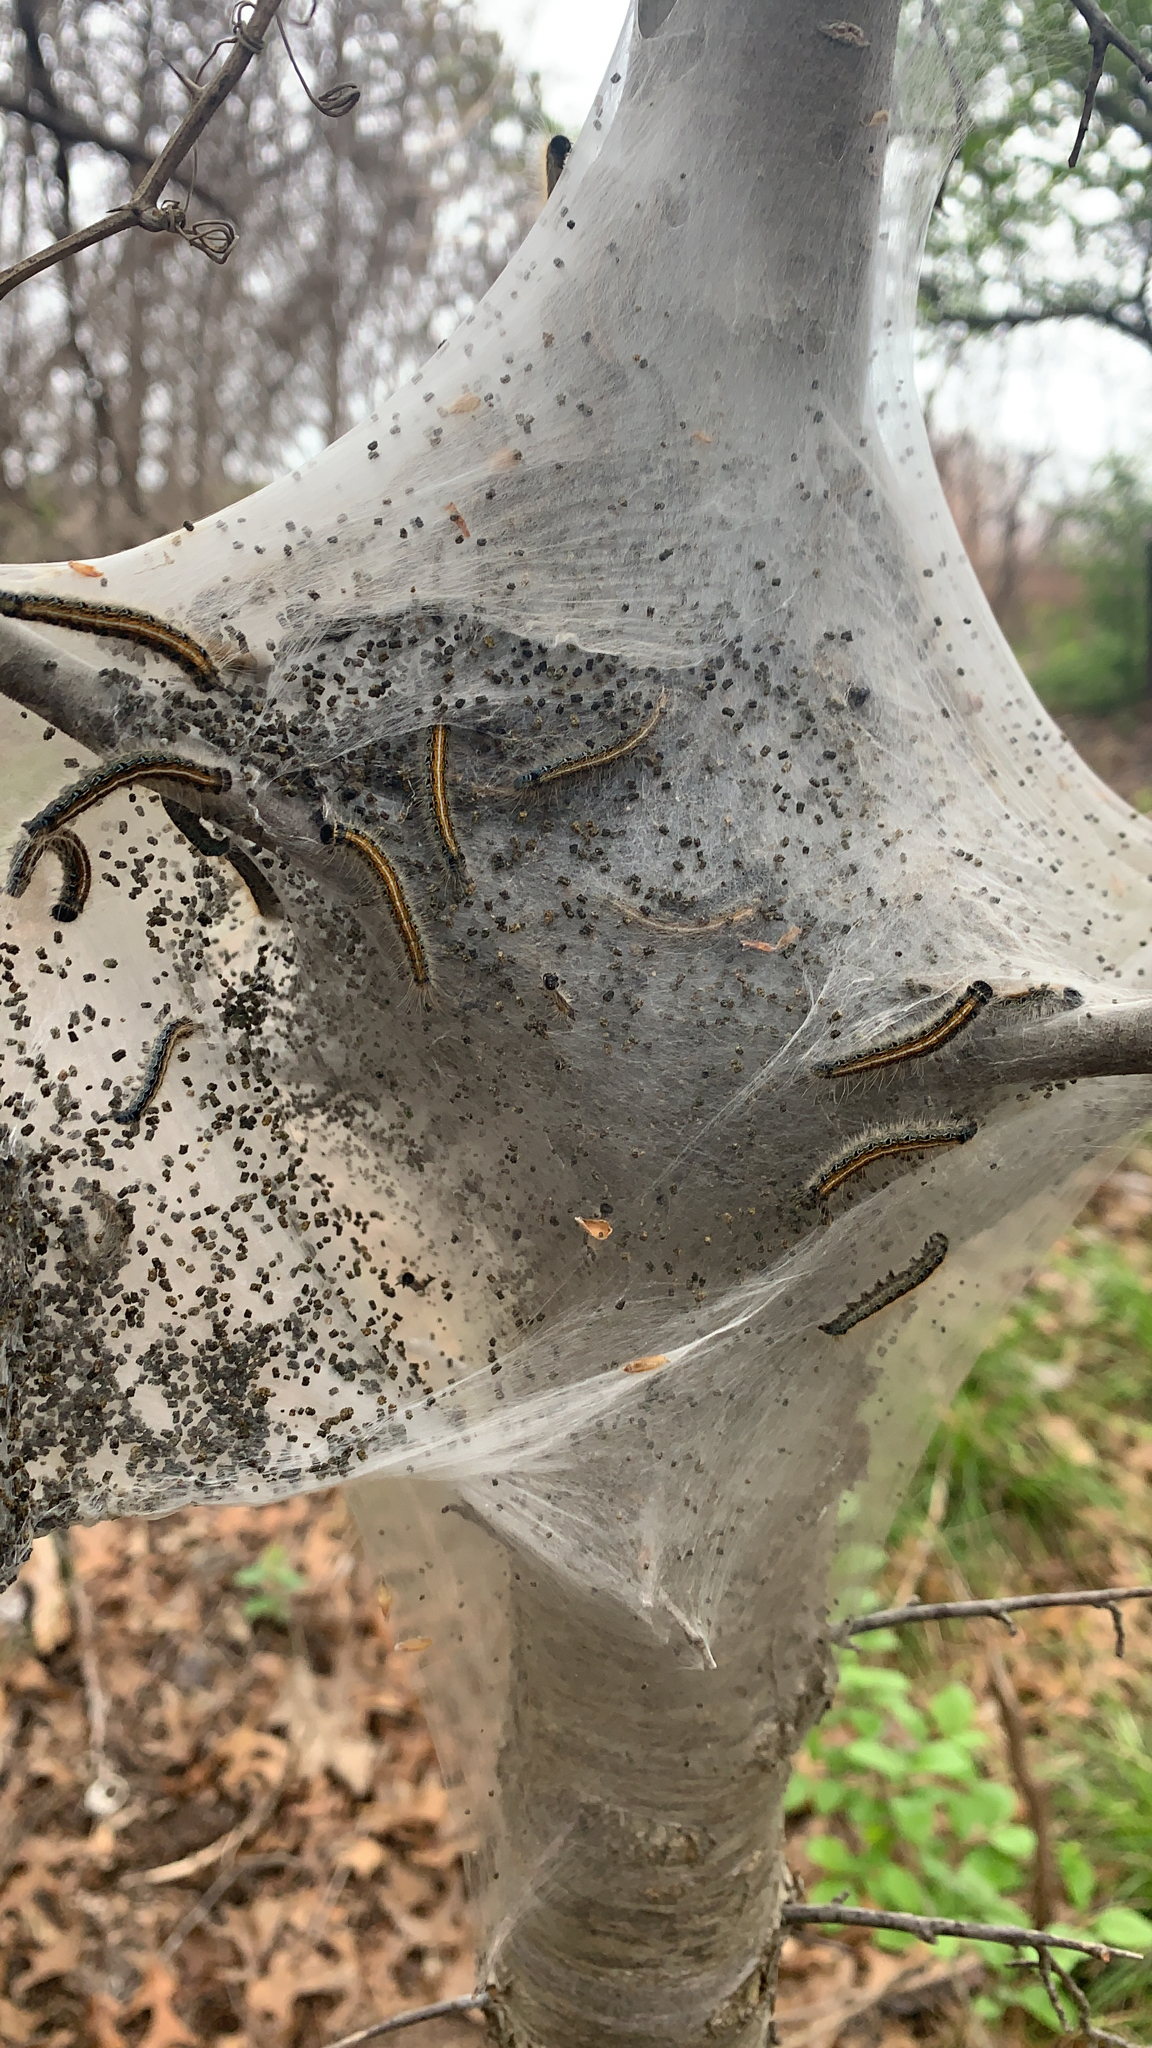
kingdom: Animalia
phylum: Arthropoda
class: Insecta
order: Lepidoptera
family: Lasiocampidae
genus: Malacosoma
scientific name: Malacosoma americana
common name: Eastern tent caterpillar moth
